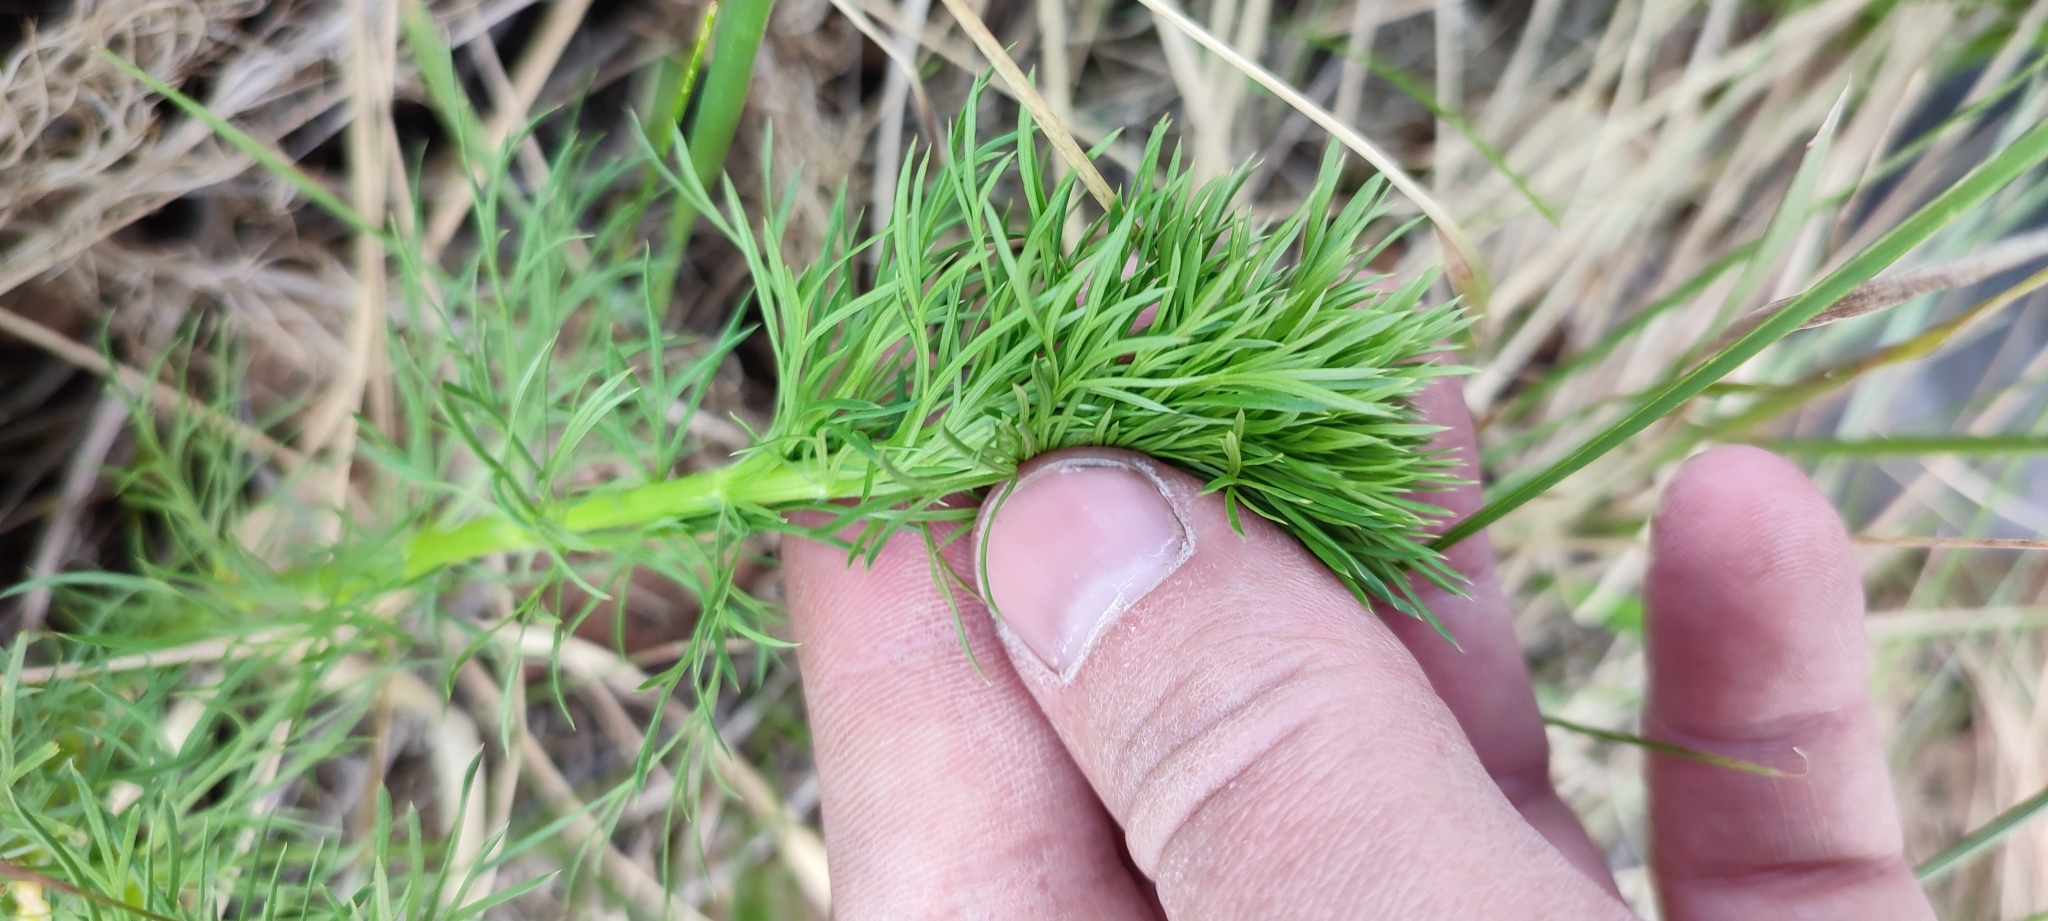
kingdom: Plantae
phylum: Tracheophyta
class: Magnoliopsida
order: Ranunculales
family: Ranunculaceae
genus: Adonis
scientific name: Adonis vernalis
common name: Yellow pheasants-eye
